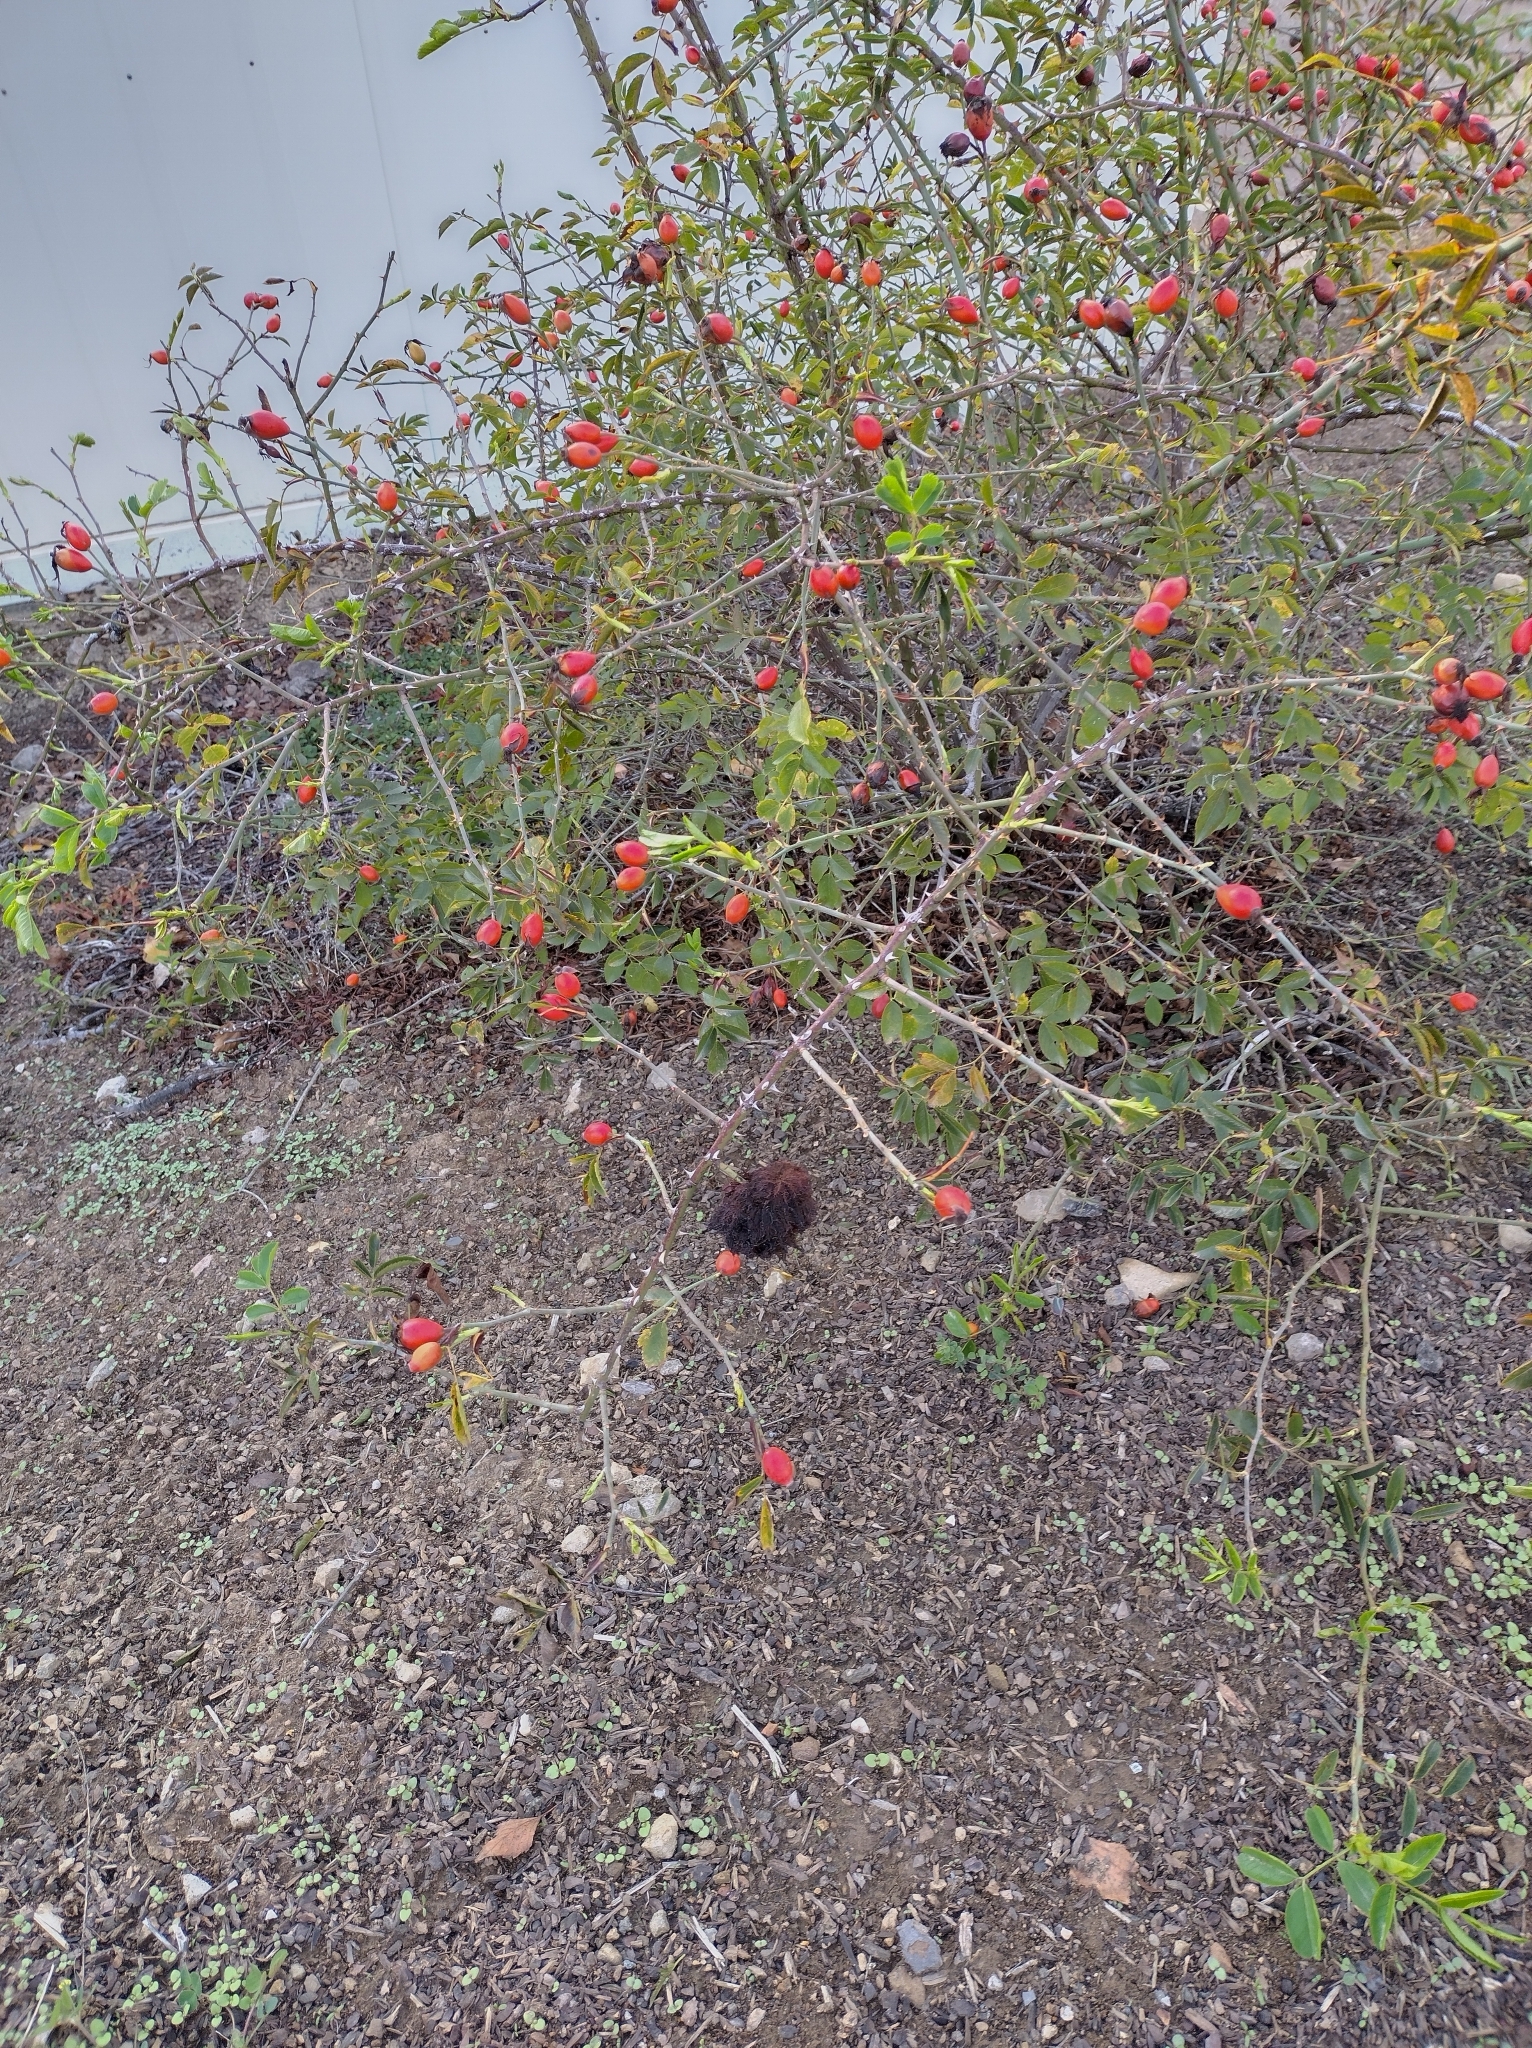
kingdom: Animalia
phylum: Arthropoda
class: Insecta
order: Hymenoptera
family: Cynipidae
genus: Diplolepis
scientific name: Diplolepis rosae
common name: Bedeguar gall
